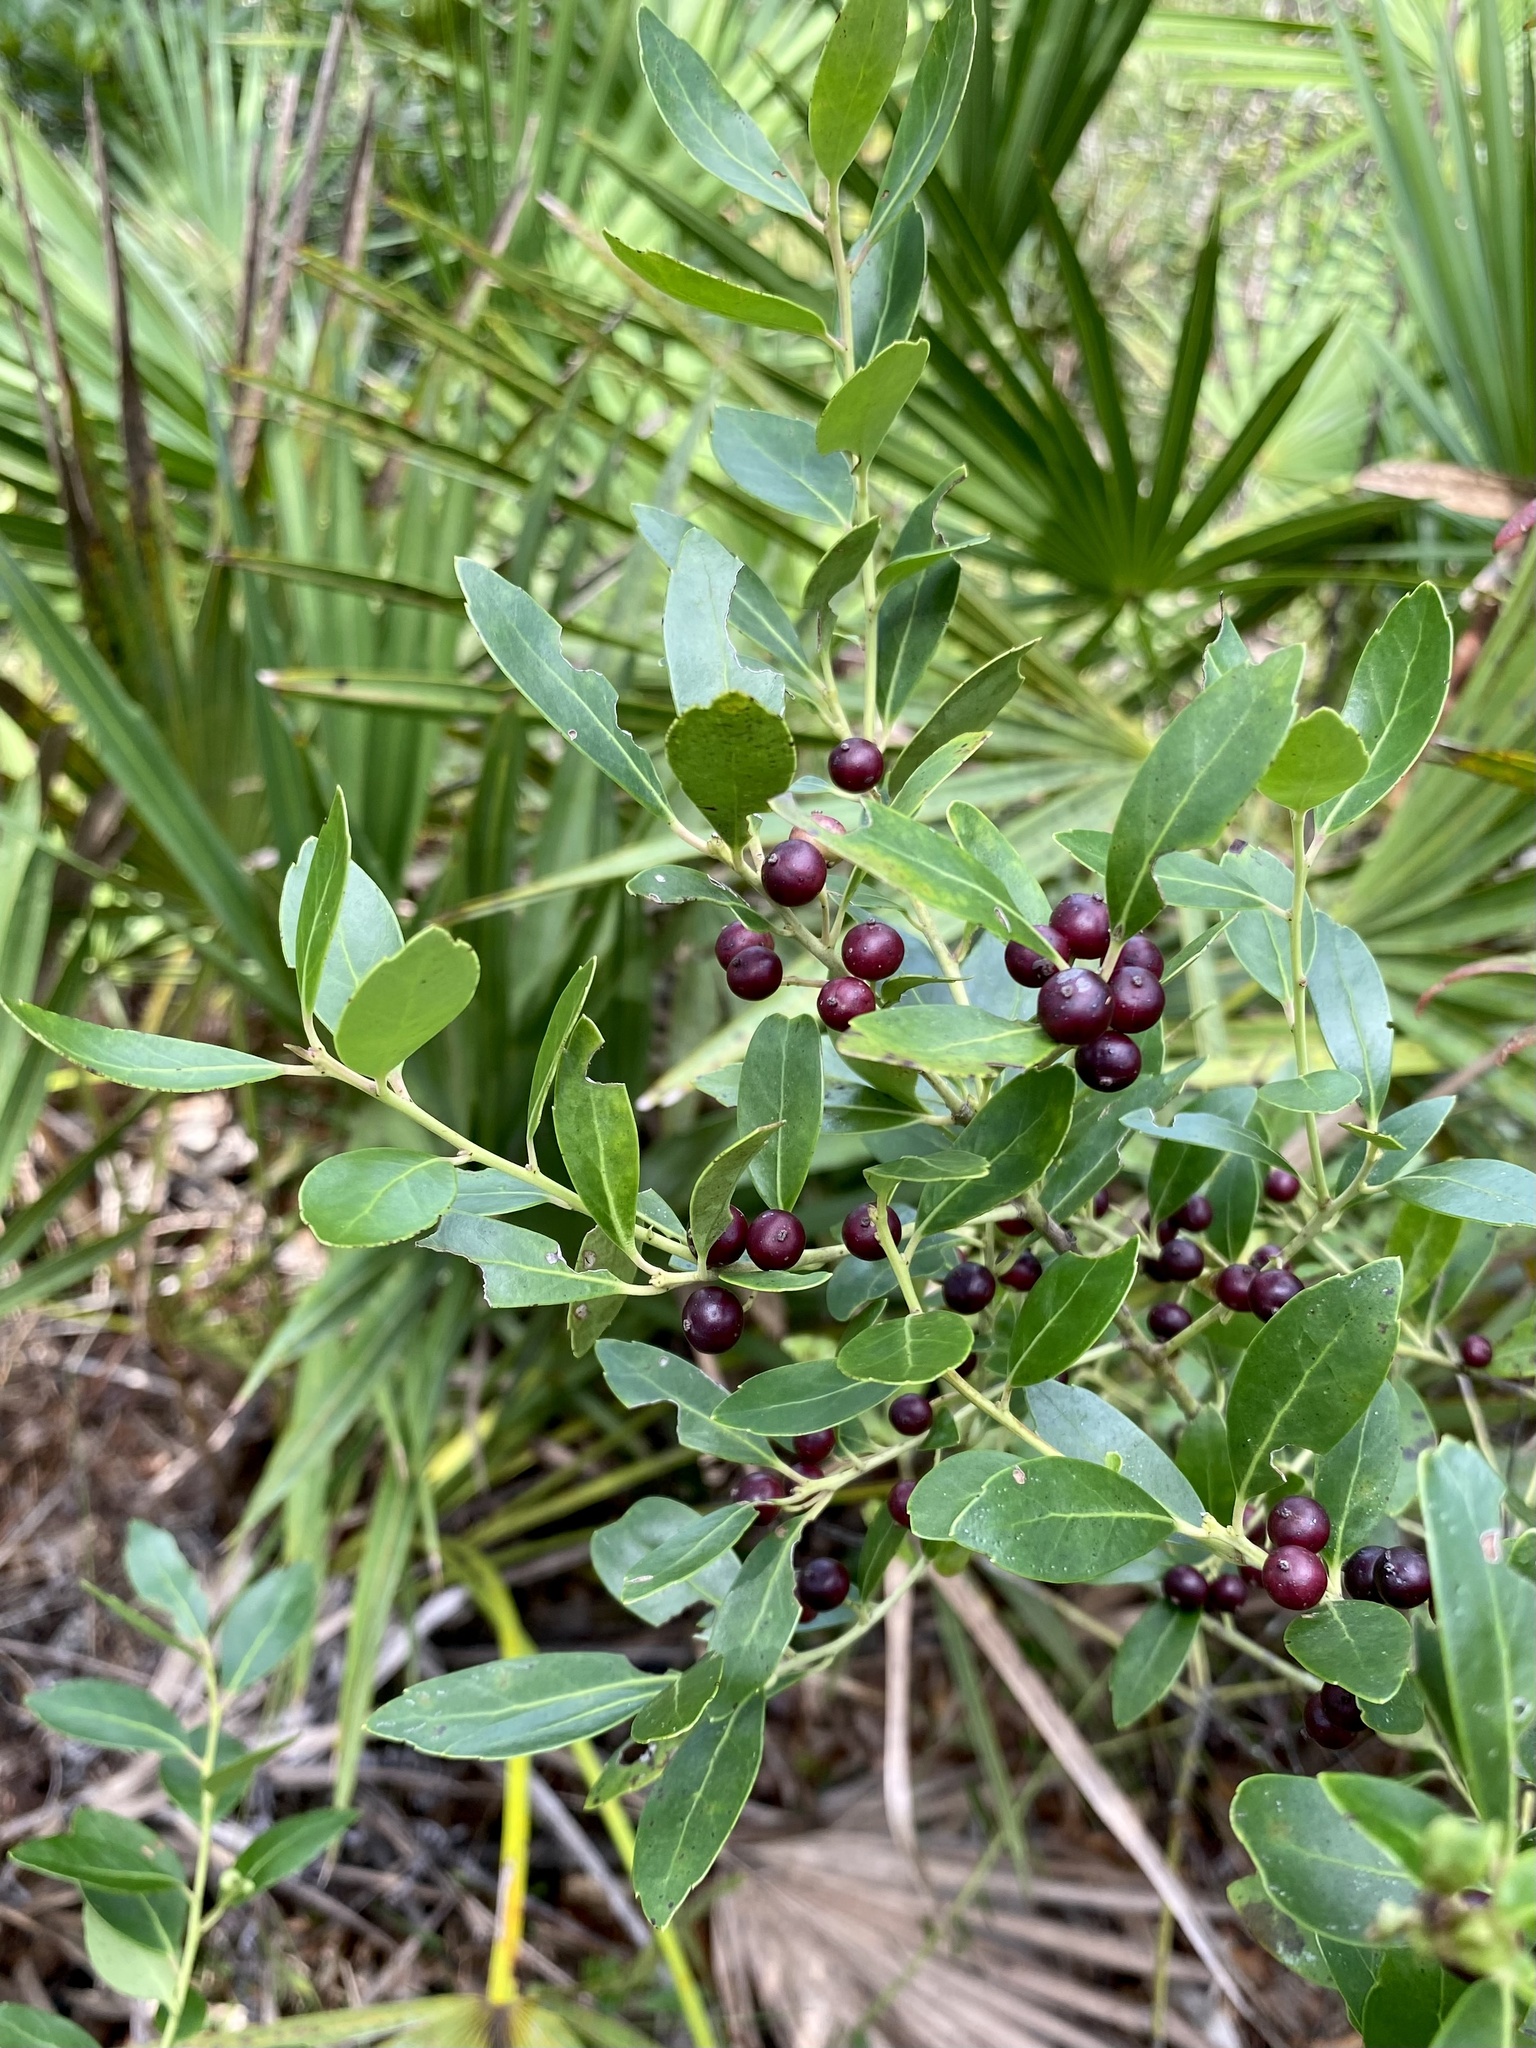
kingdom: Plantae
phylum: Tracheophyta
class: Magnoliopsida
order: Aquifoliales
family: Aquifoliaceae
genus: Ilex
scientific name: Ilex glabra
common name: Bitter gallberry
